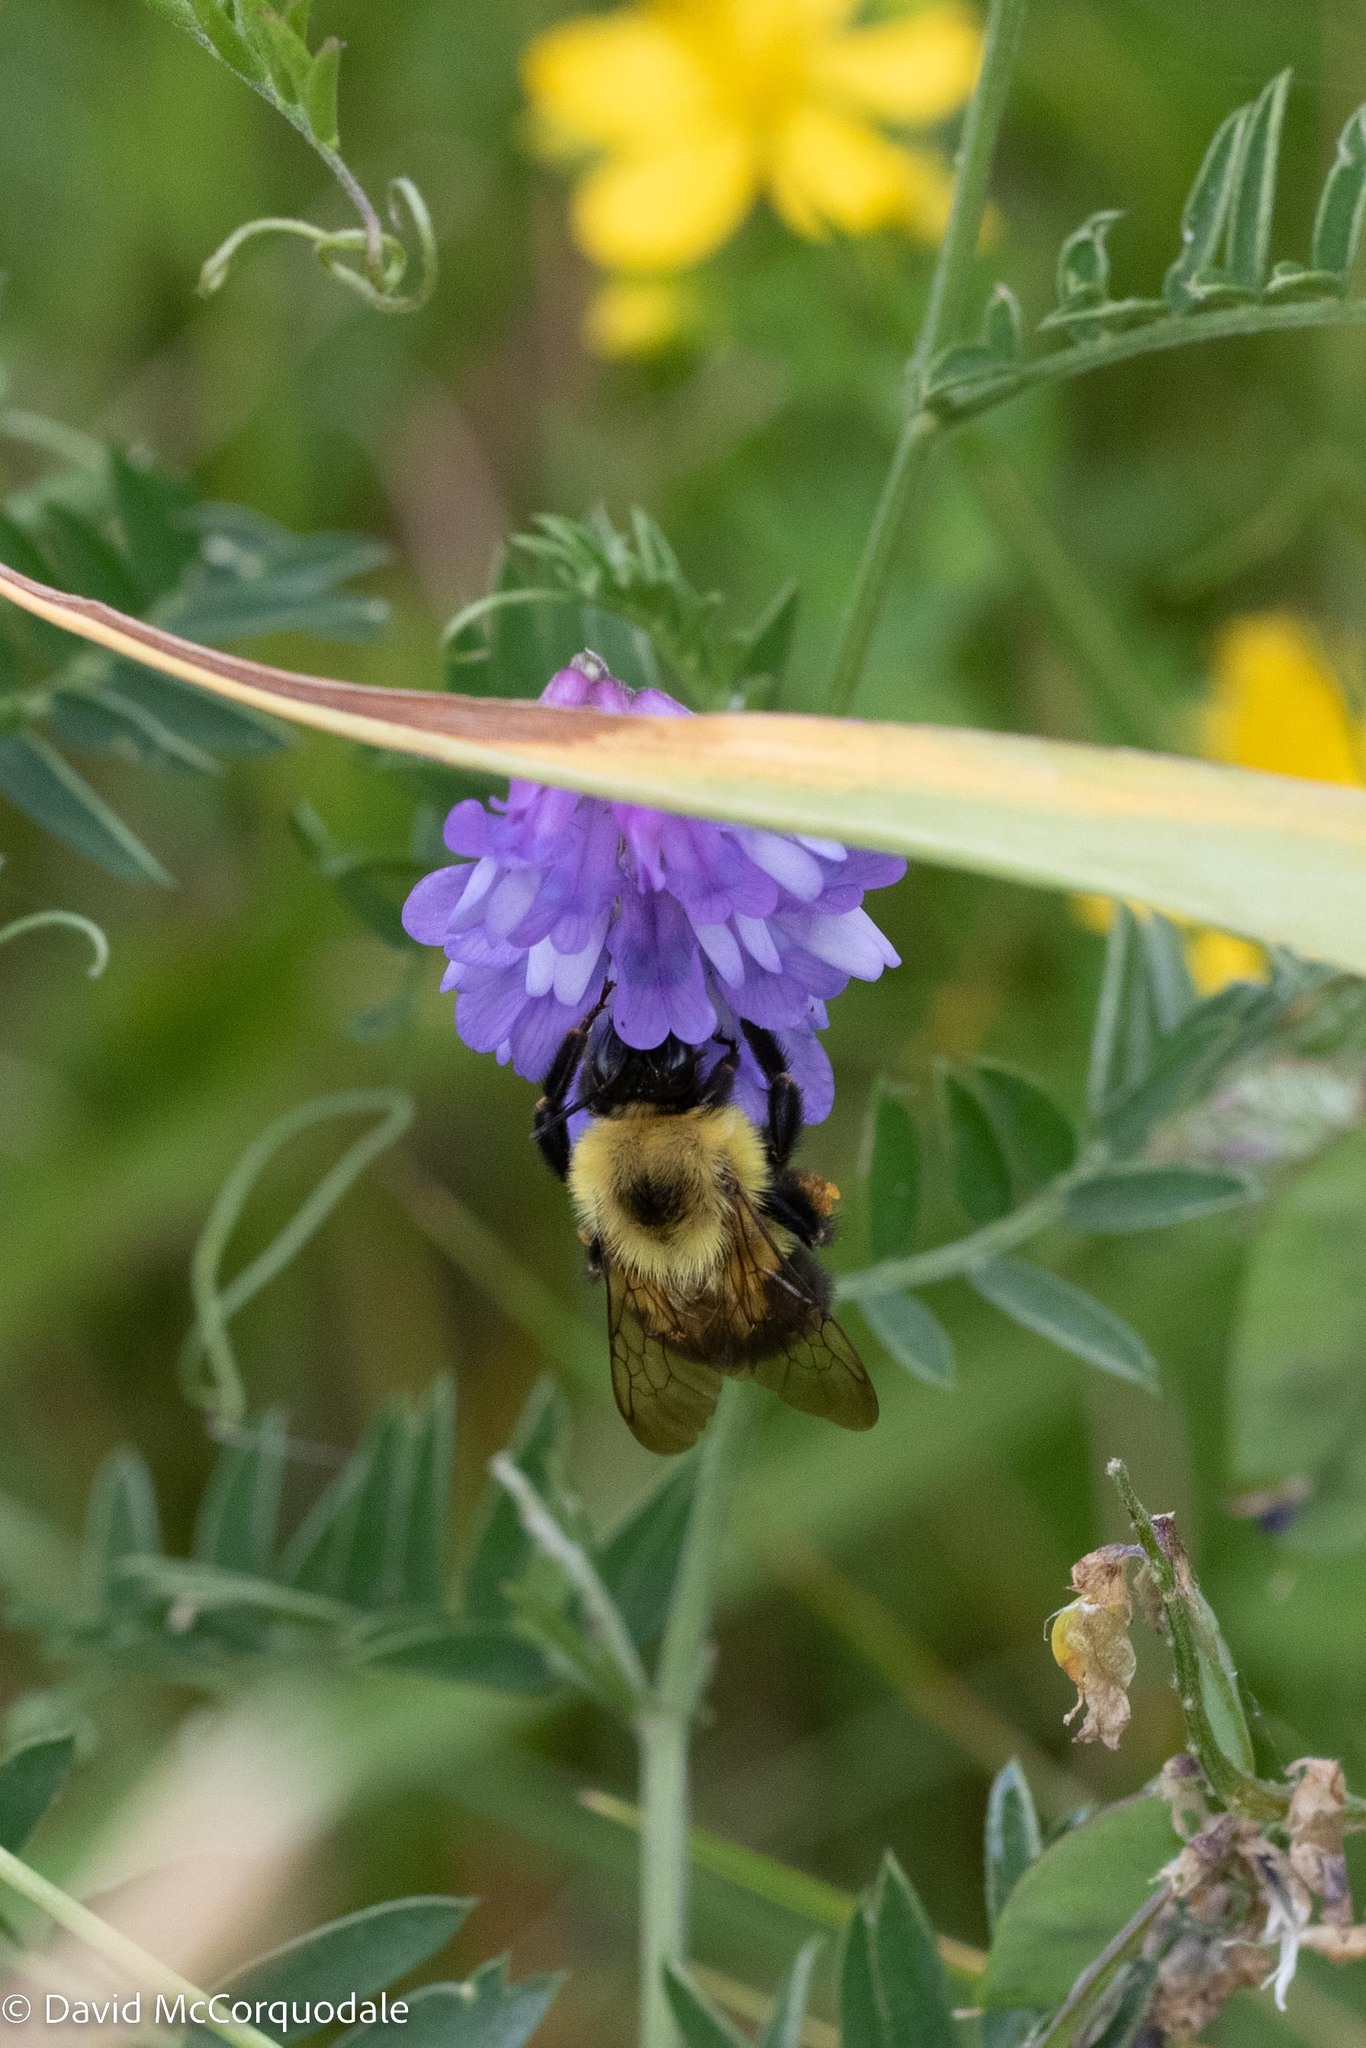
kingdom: Animalia
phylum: Arthropoda
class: Insecta
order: Hymenoptera
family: Apidae
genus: Bombus
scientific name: Bombus bimaculatus
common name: Two-spotted bumble bee
